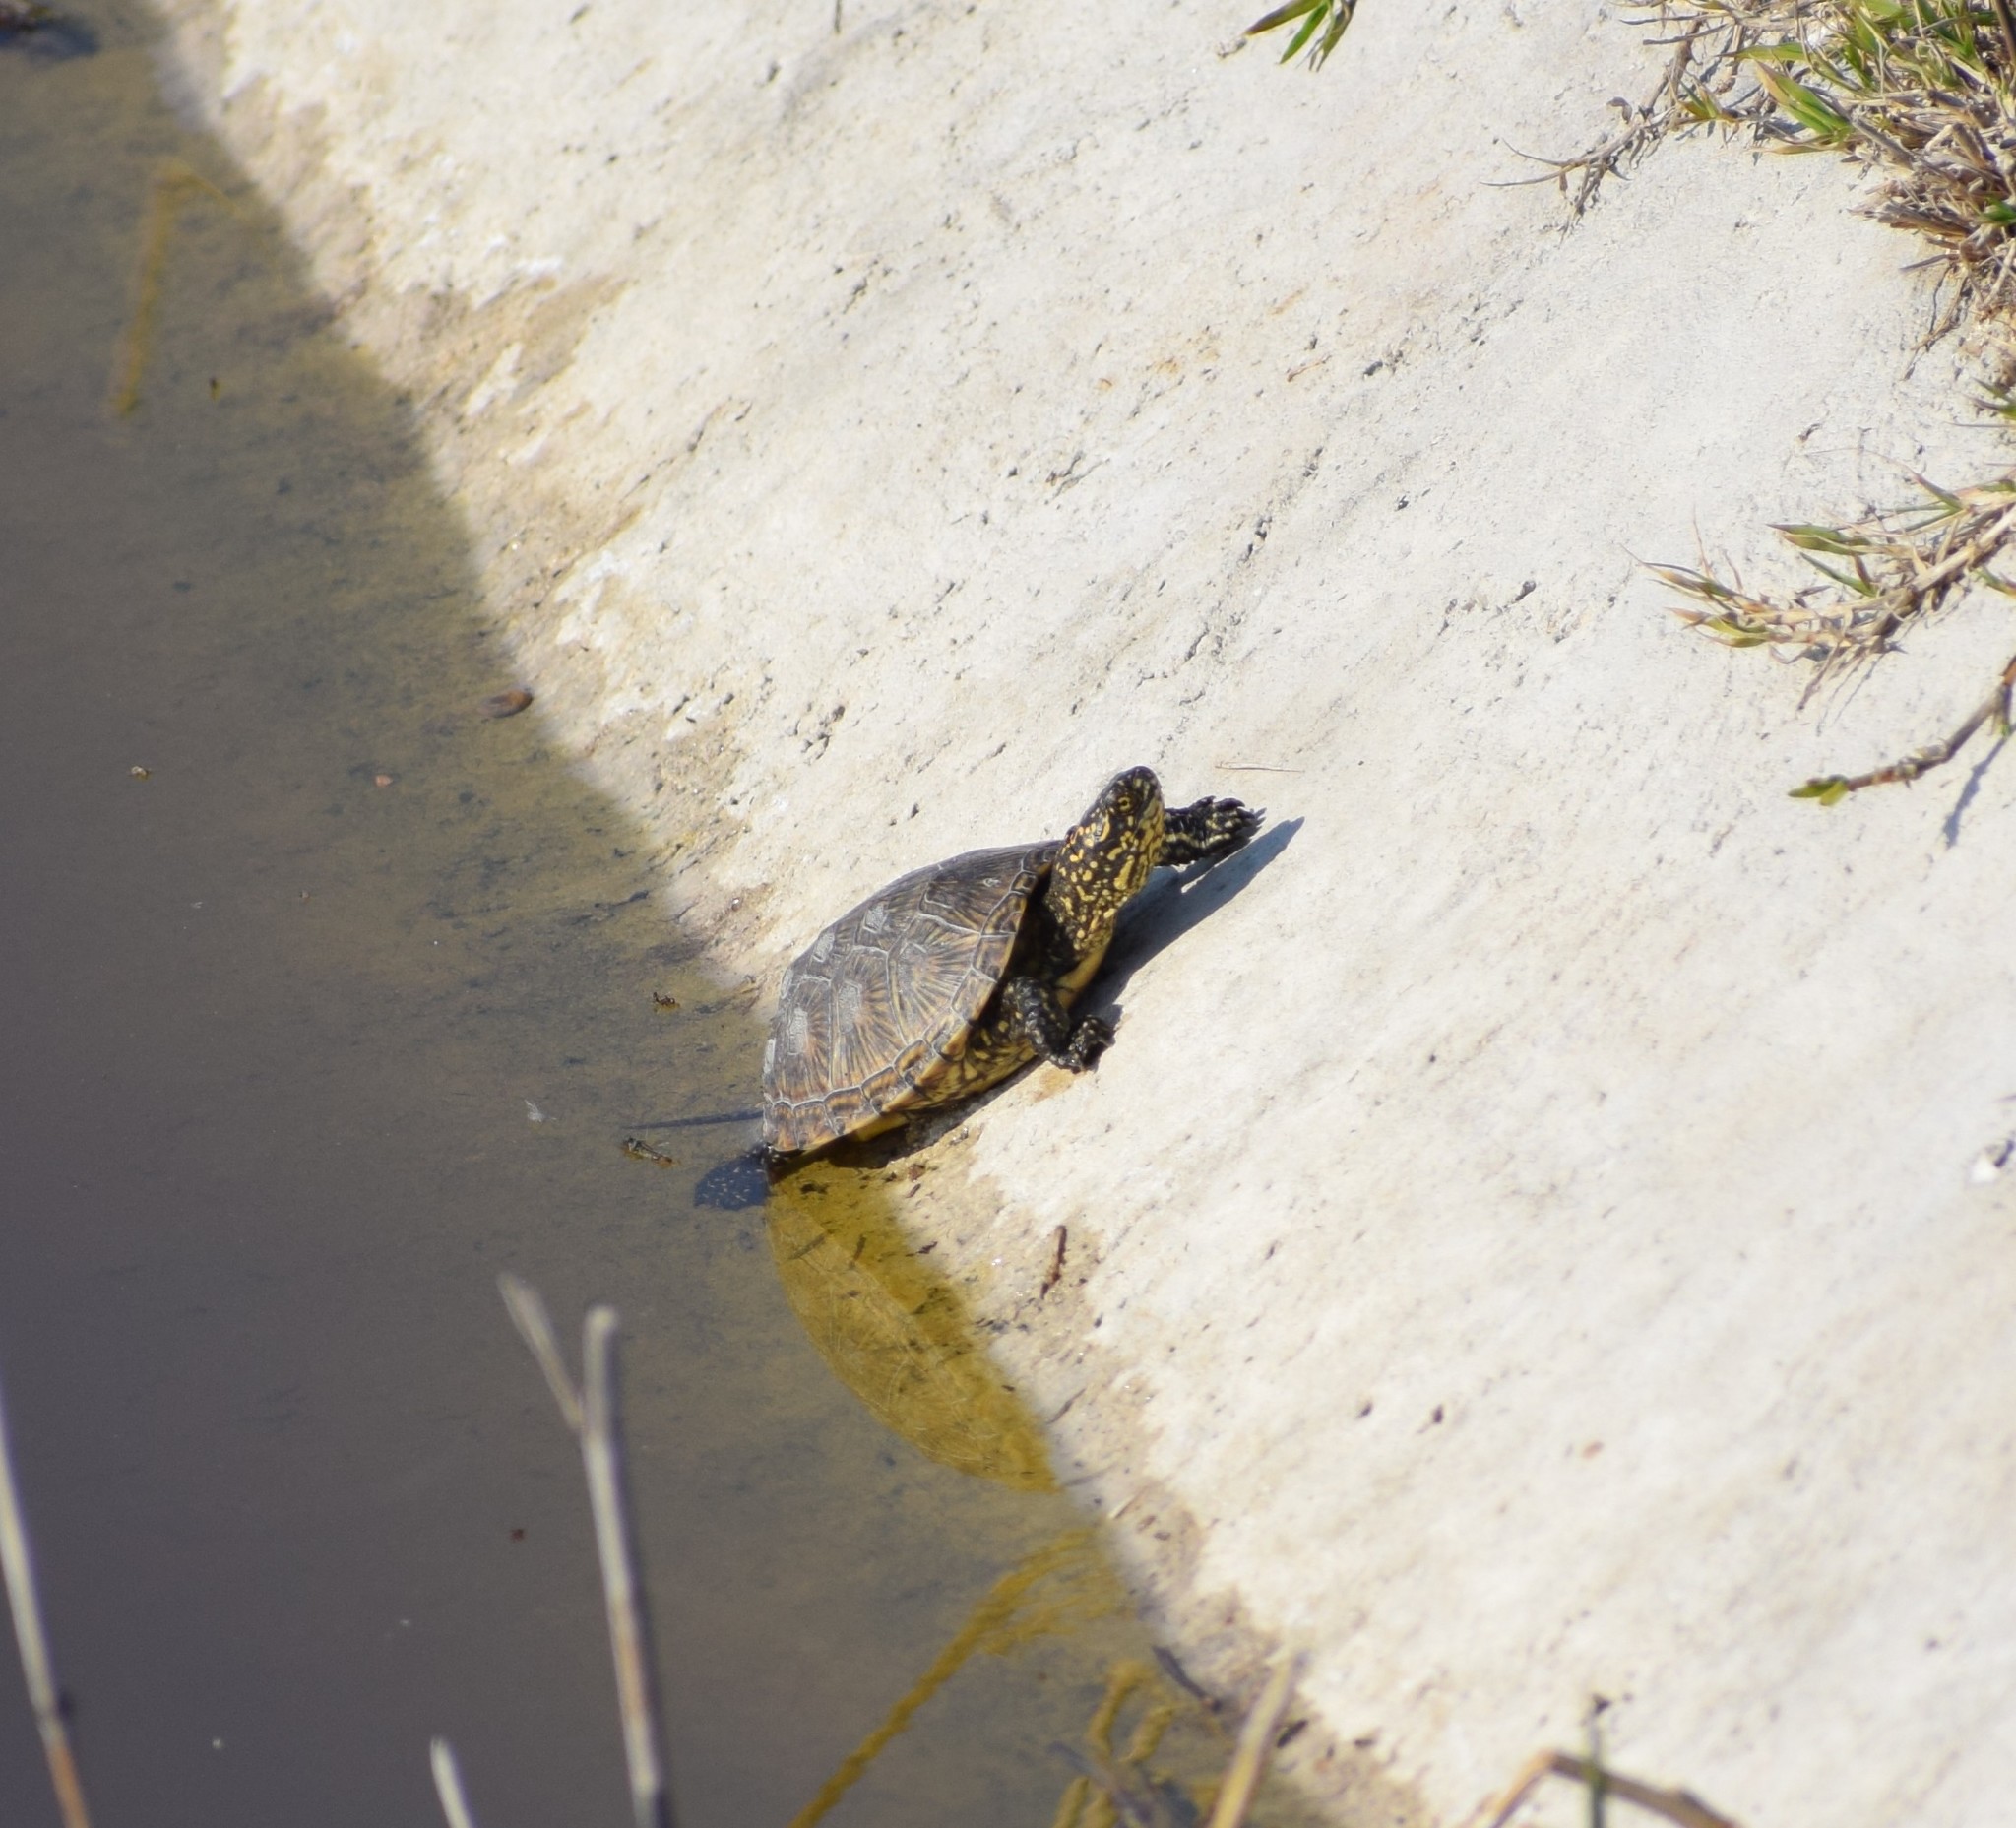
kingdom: Animalia
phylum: Chordata
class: Testudines
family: Emydidae
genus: Emys
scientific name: Emys orbicularis
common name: European pond turtle
